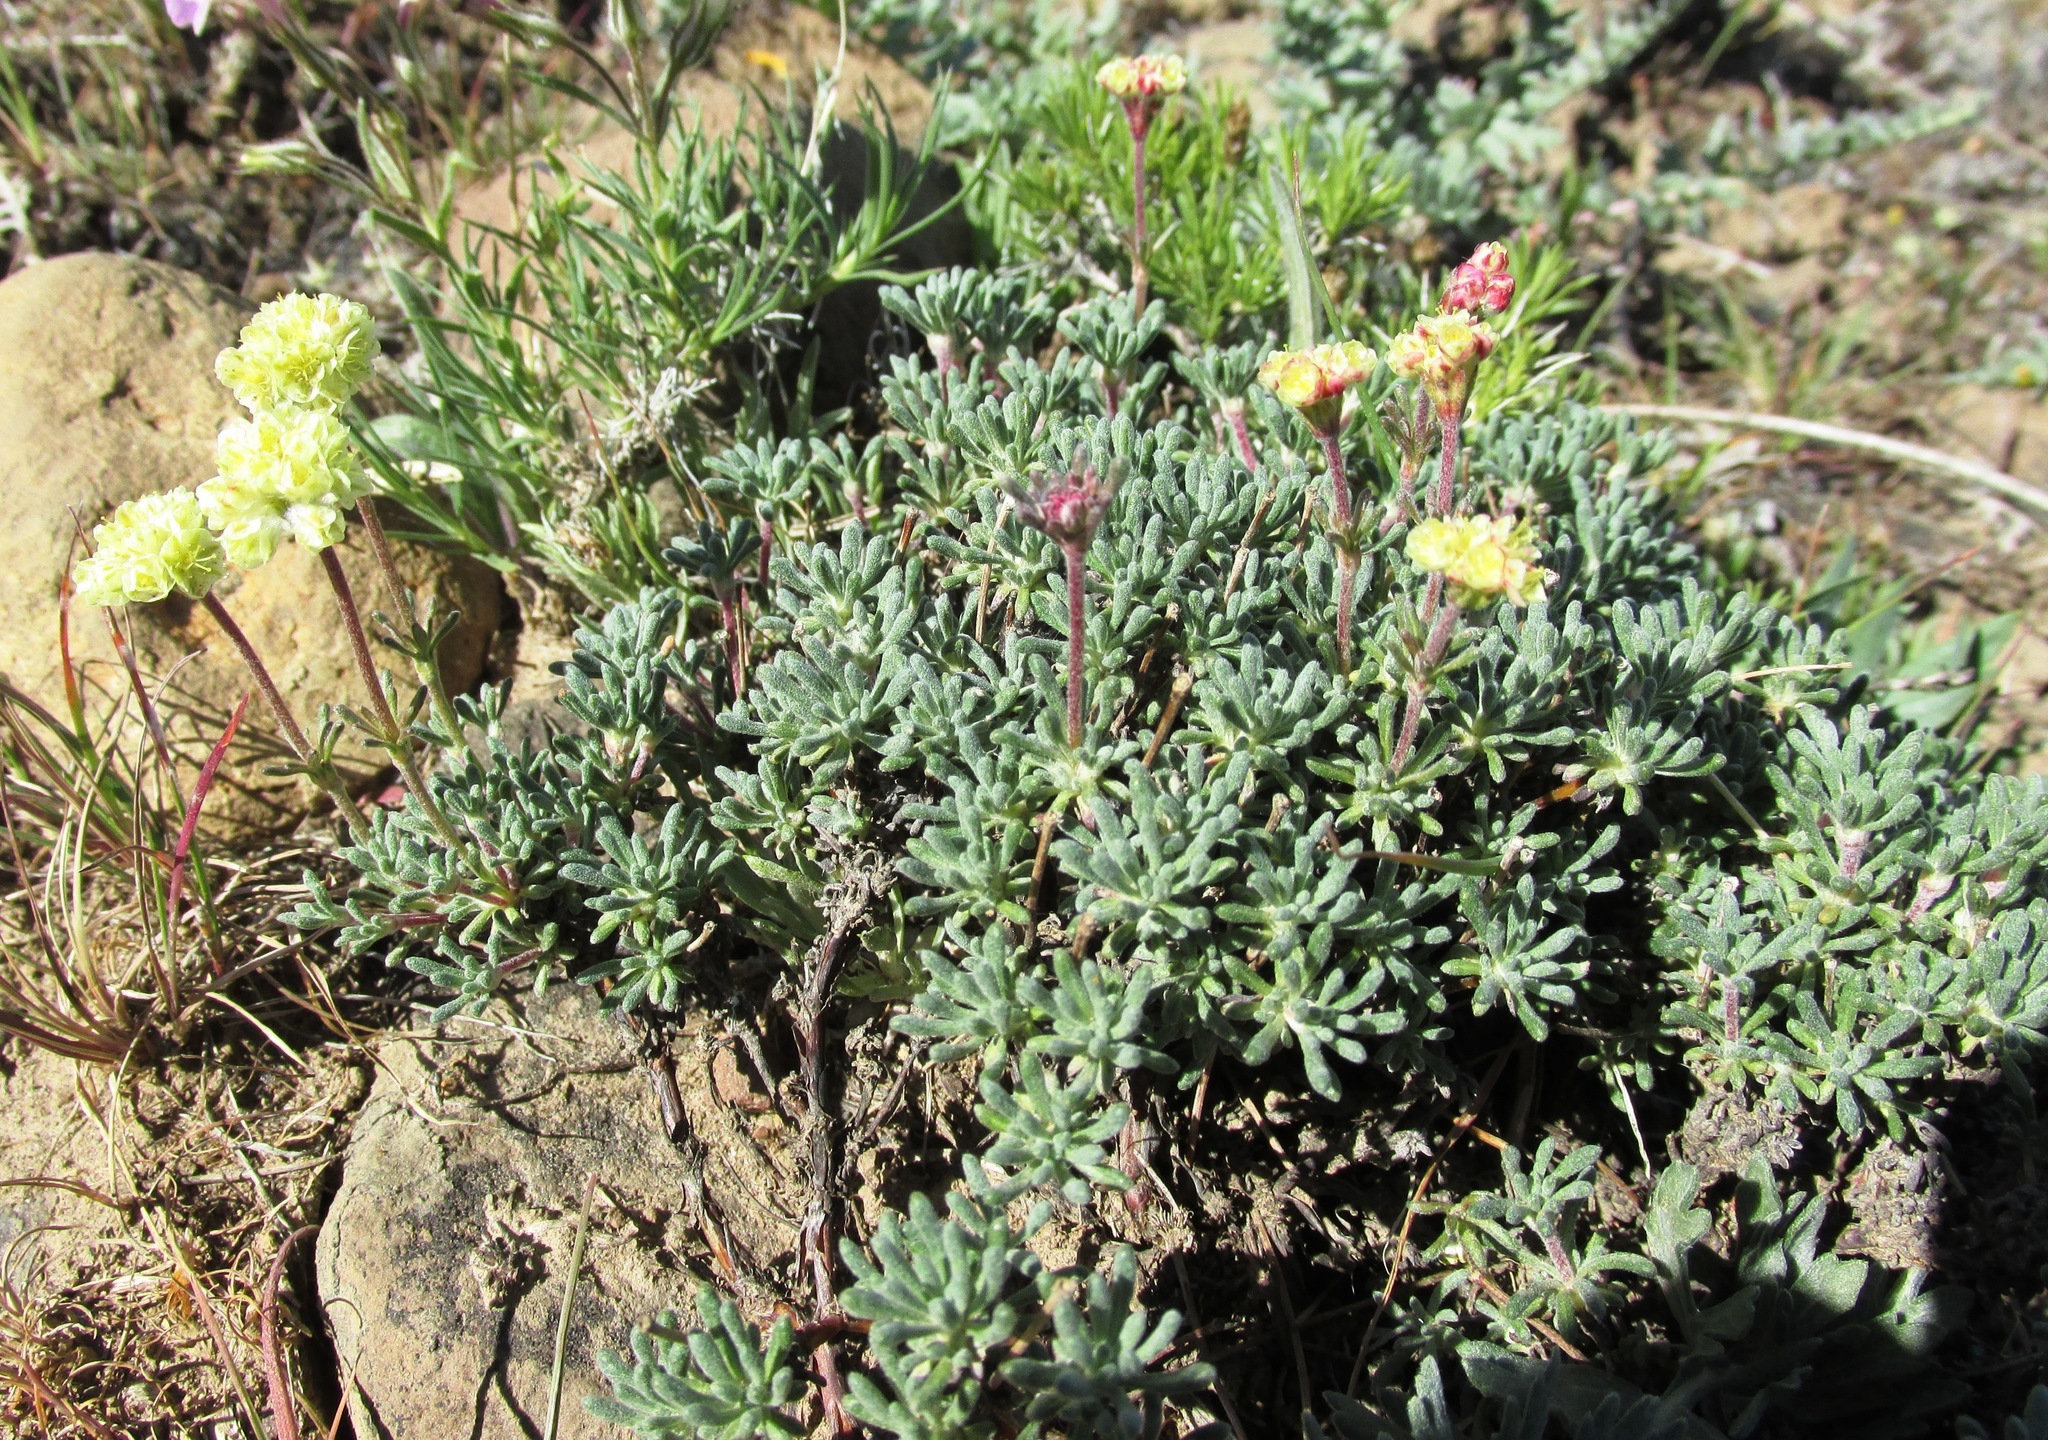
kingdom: Plantae
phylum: Tracheophyta
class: Magnoliopsida
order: Caryophyllales
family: Polygonaceae
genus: Eriogonum
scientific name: Eriogonum thymoides
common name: Thyme-leaf wild buckwheat
